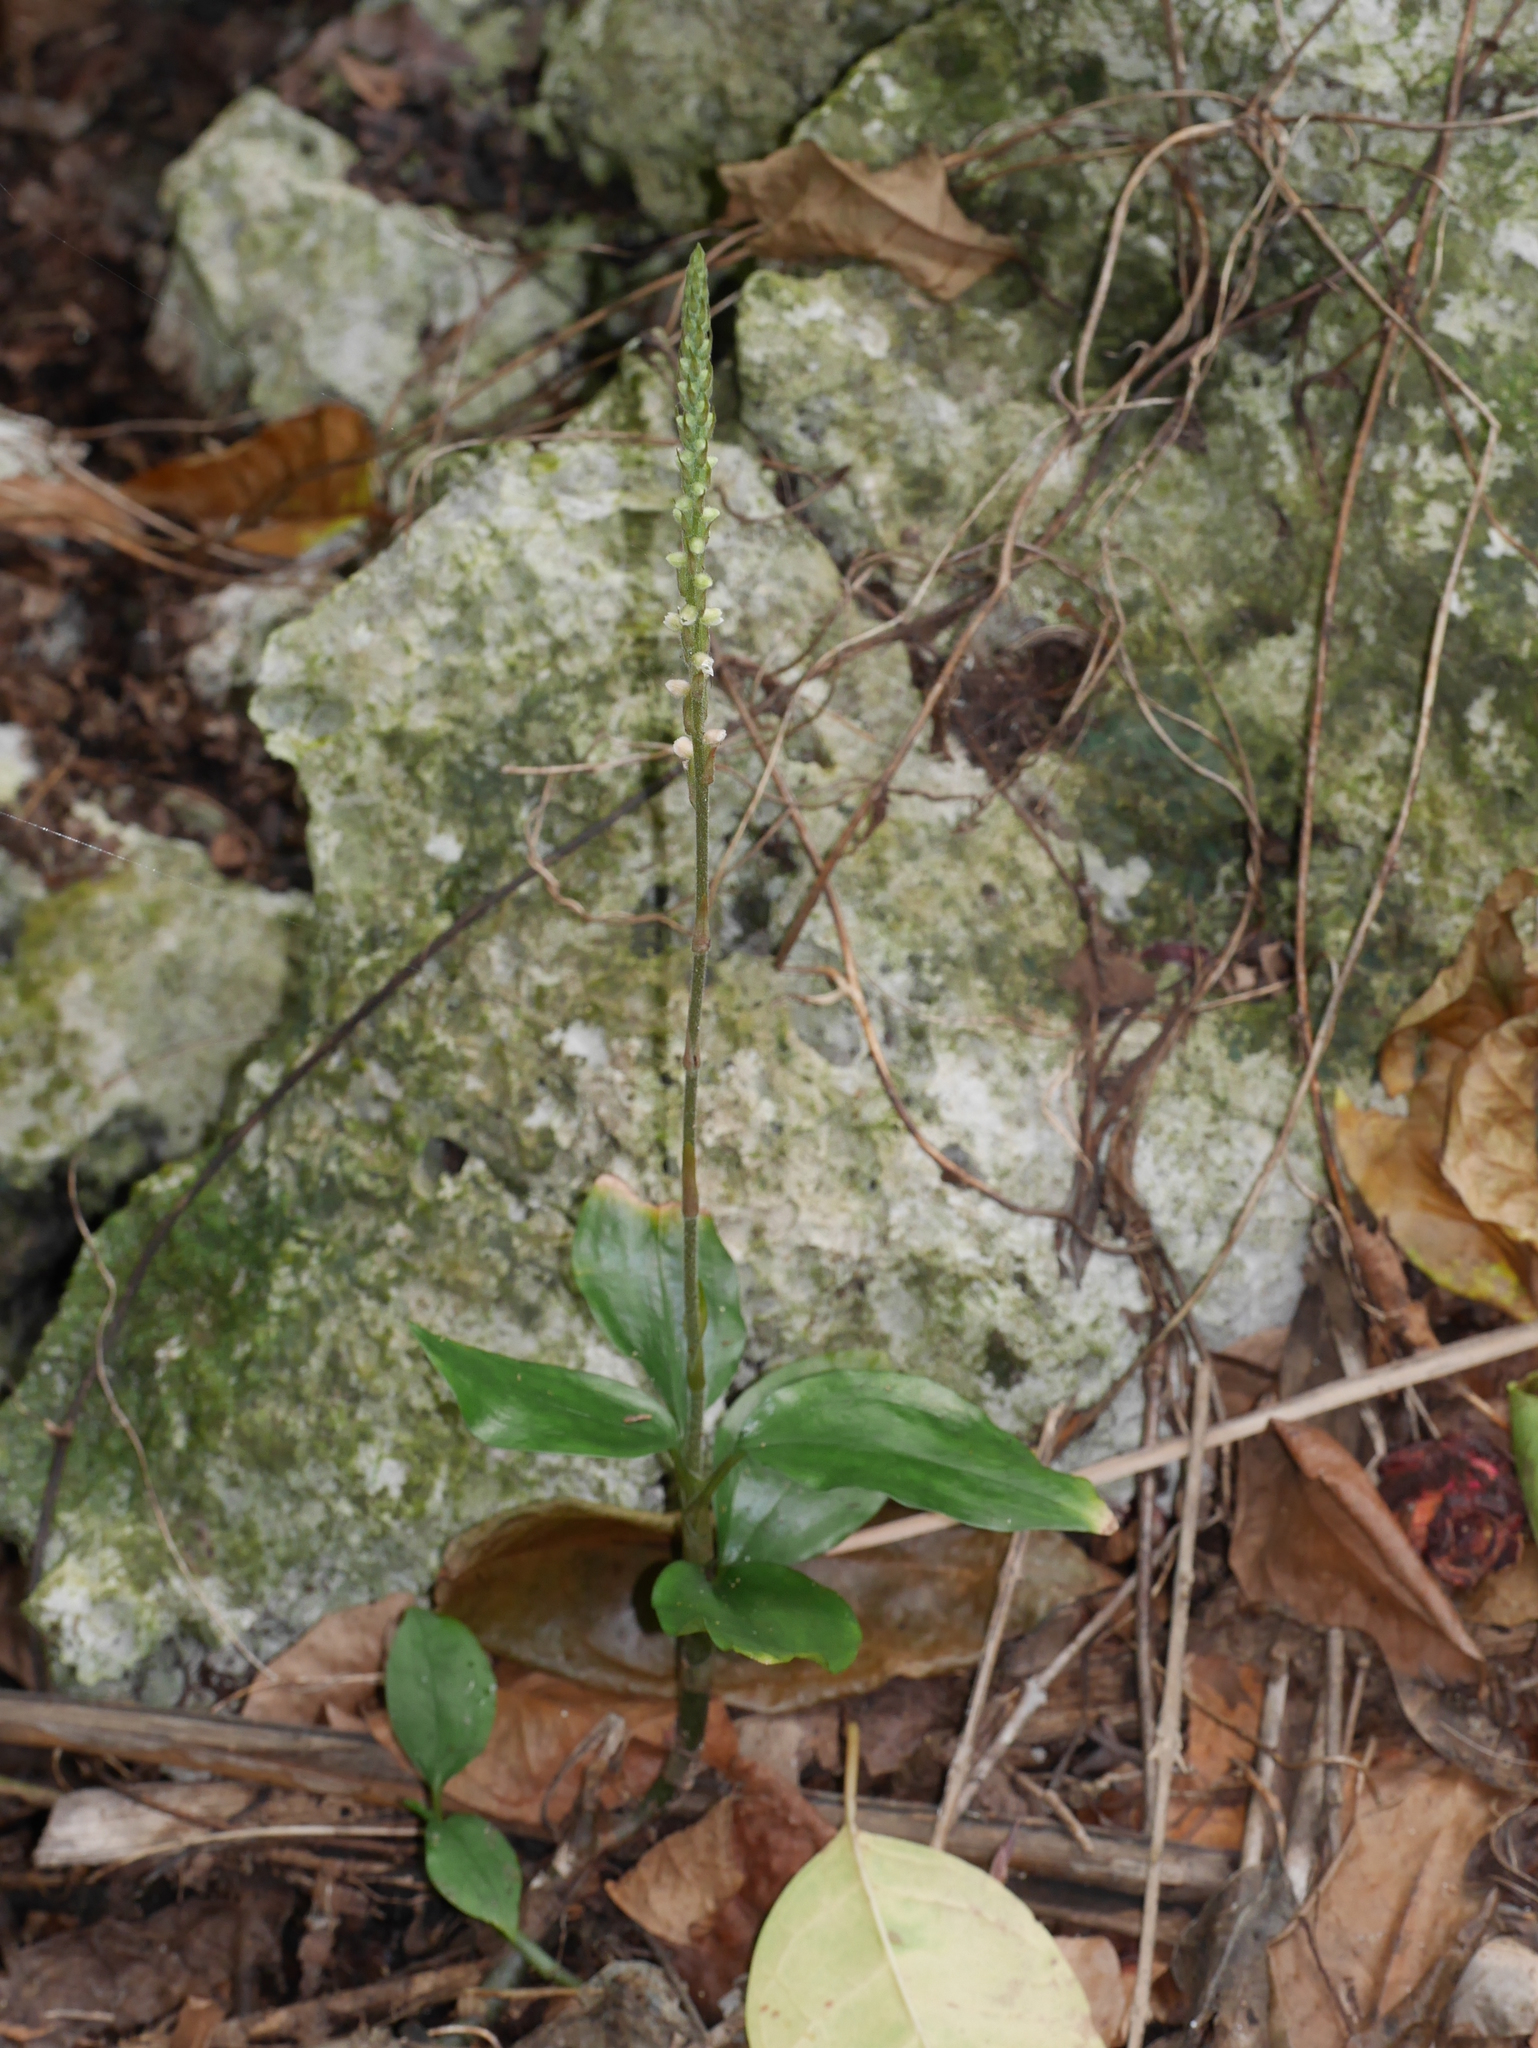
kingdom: Plantae
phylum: Tracheophyta
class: Liliopsida
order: Asparagales
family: Orchidaceae
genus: Hetaeria
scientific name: Hetaeria oblongifolia
